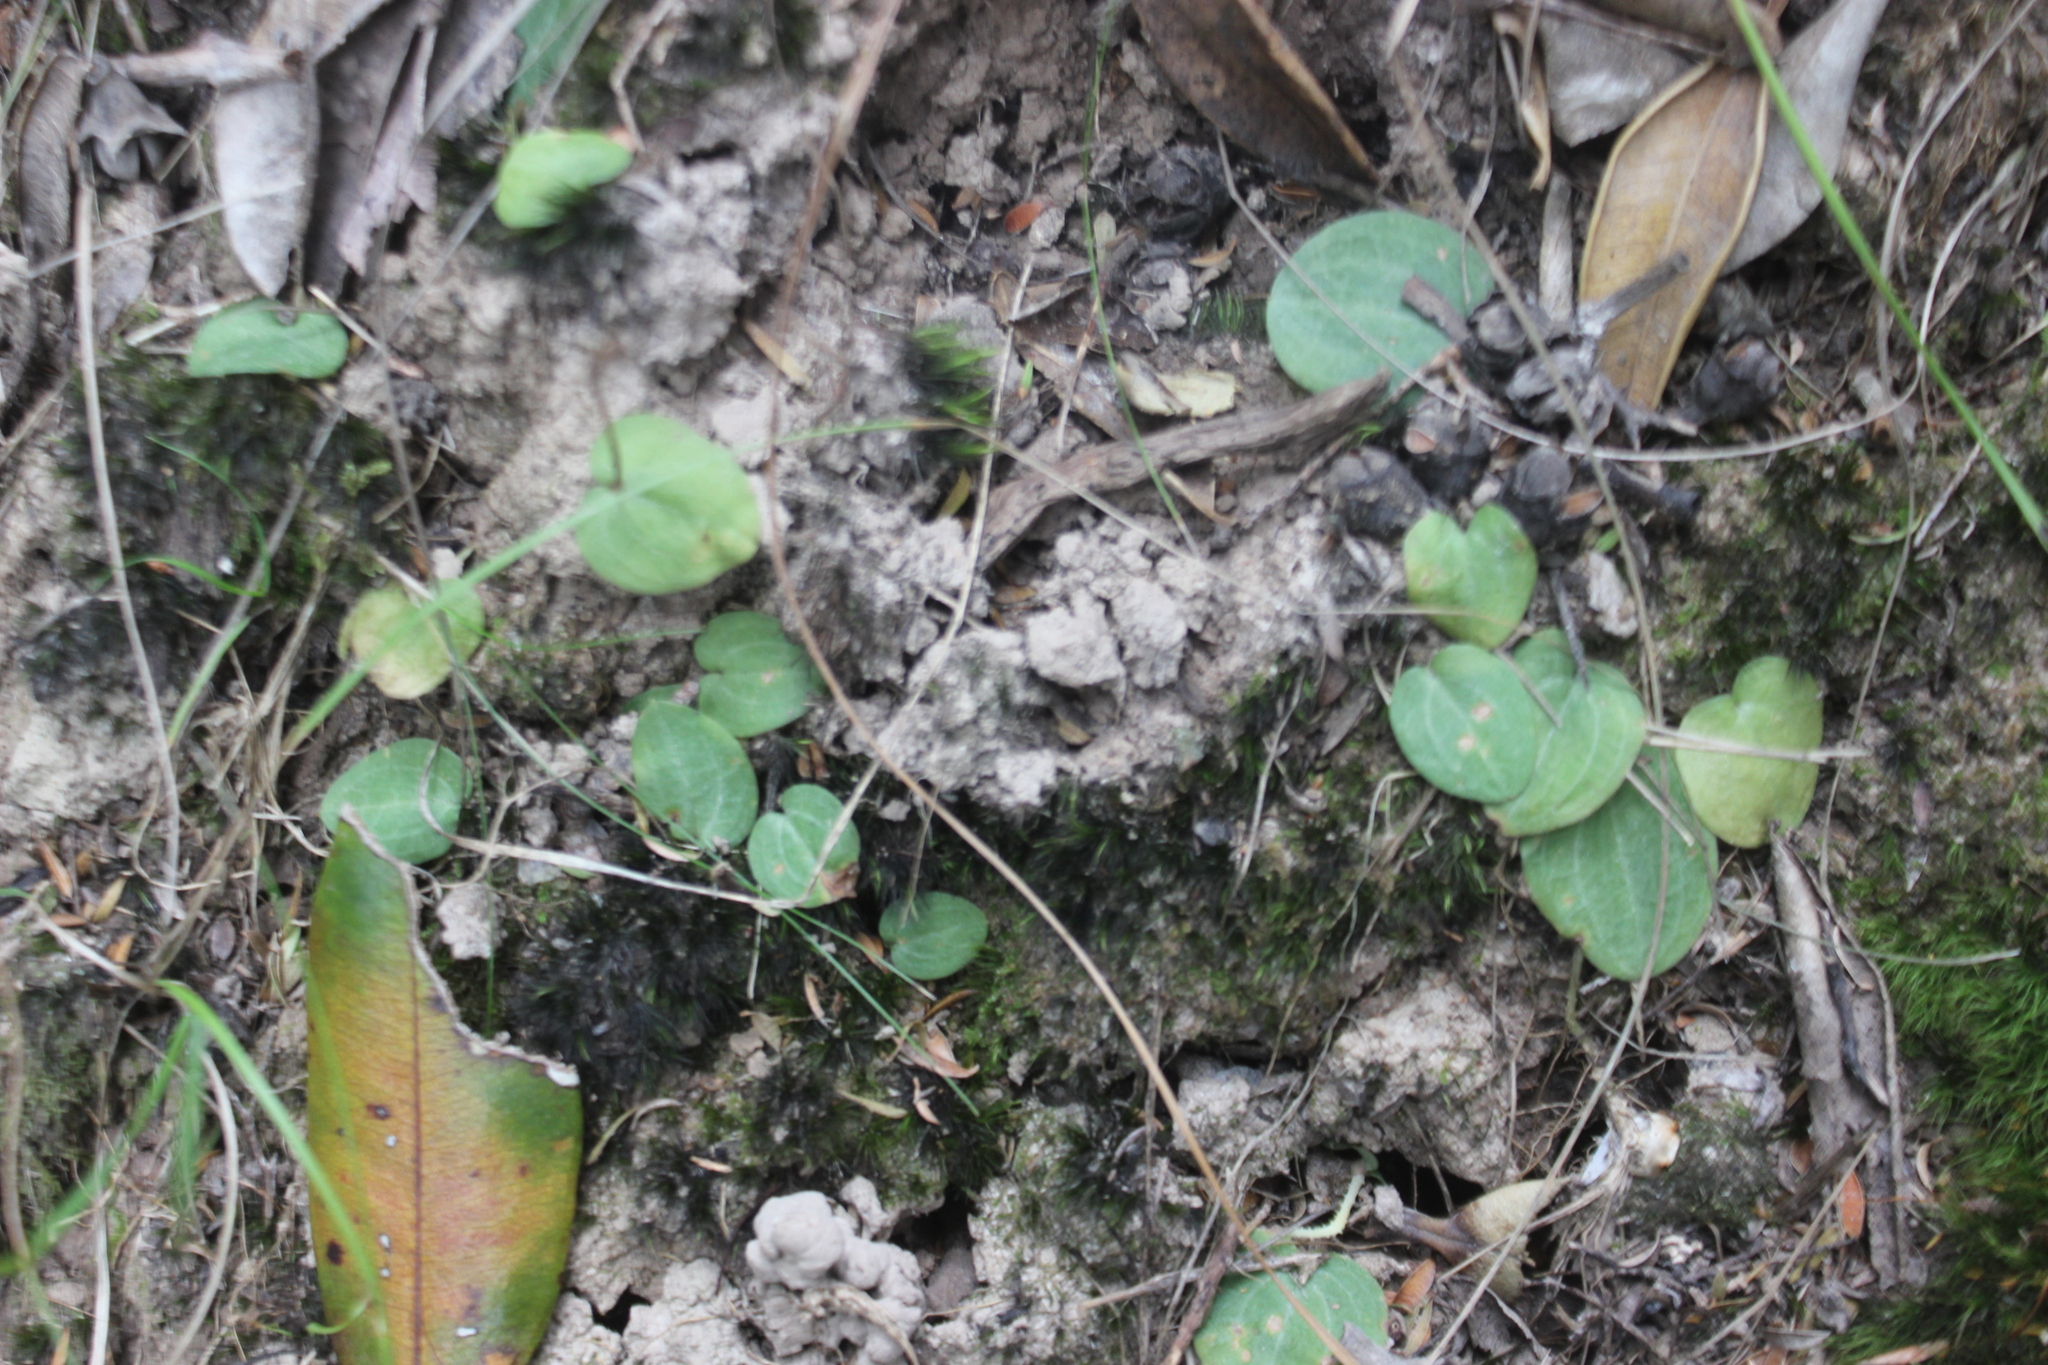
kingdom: Plantae
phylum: Tracheophyta
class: Liliopsida
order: Asparagales
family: Orchidaceae
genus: Cyrtostylis
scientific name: Cyrtostylis rotundifolia
